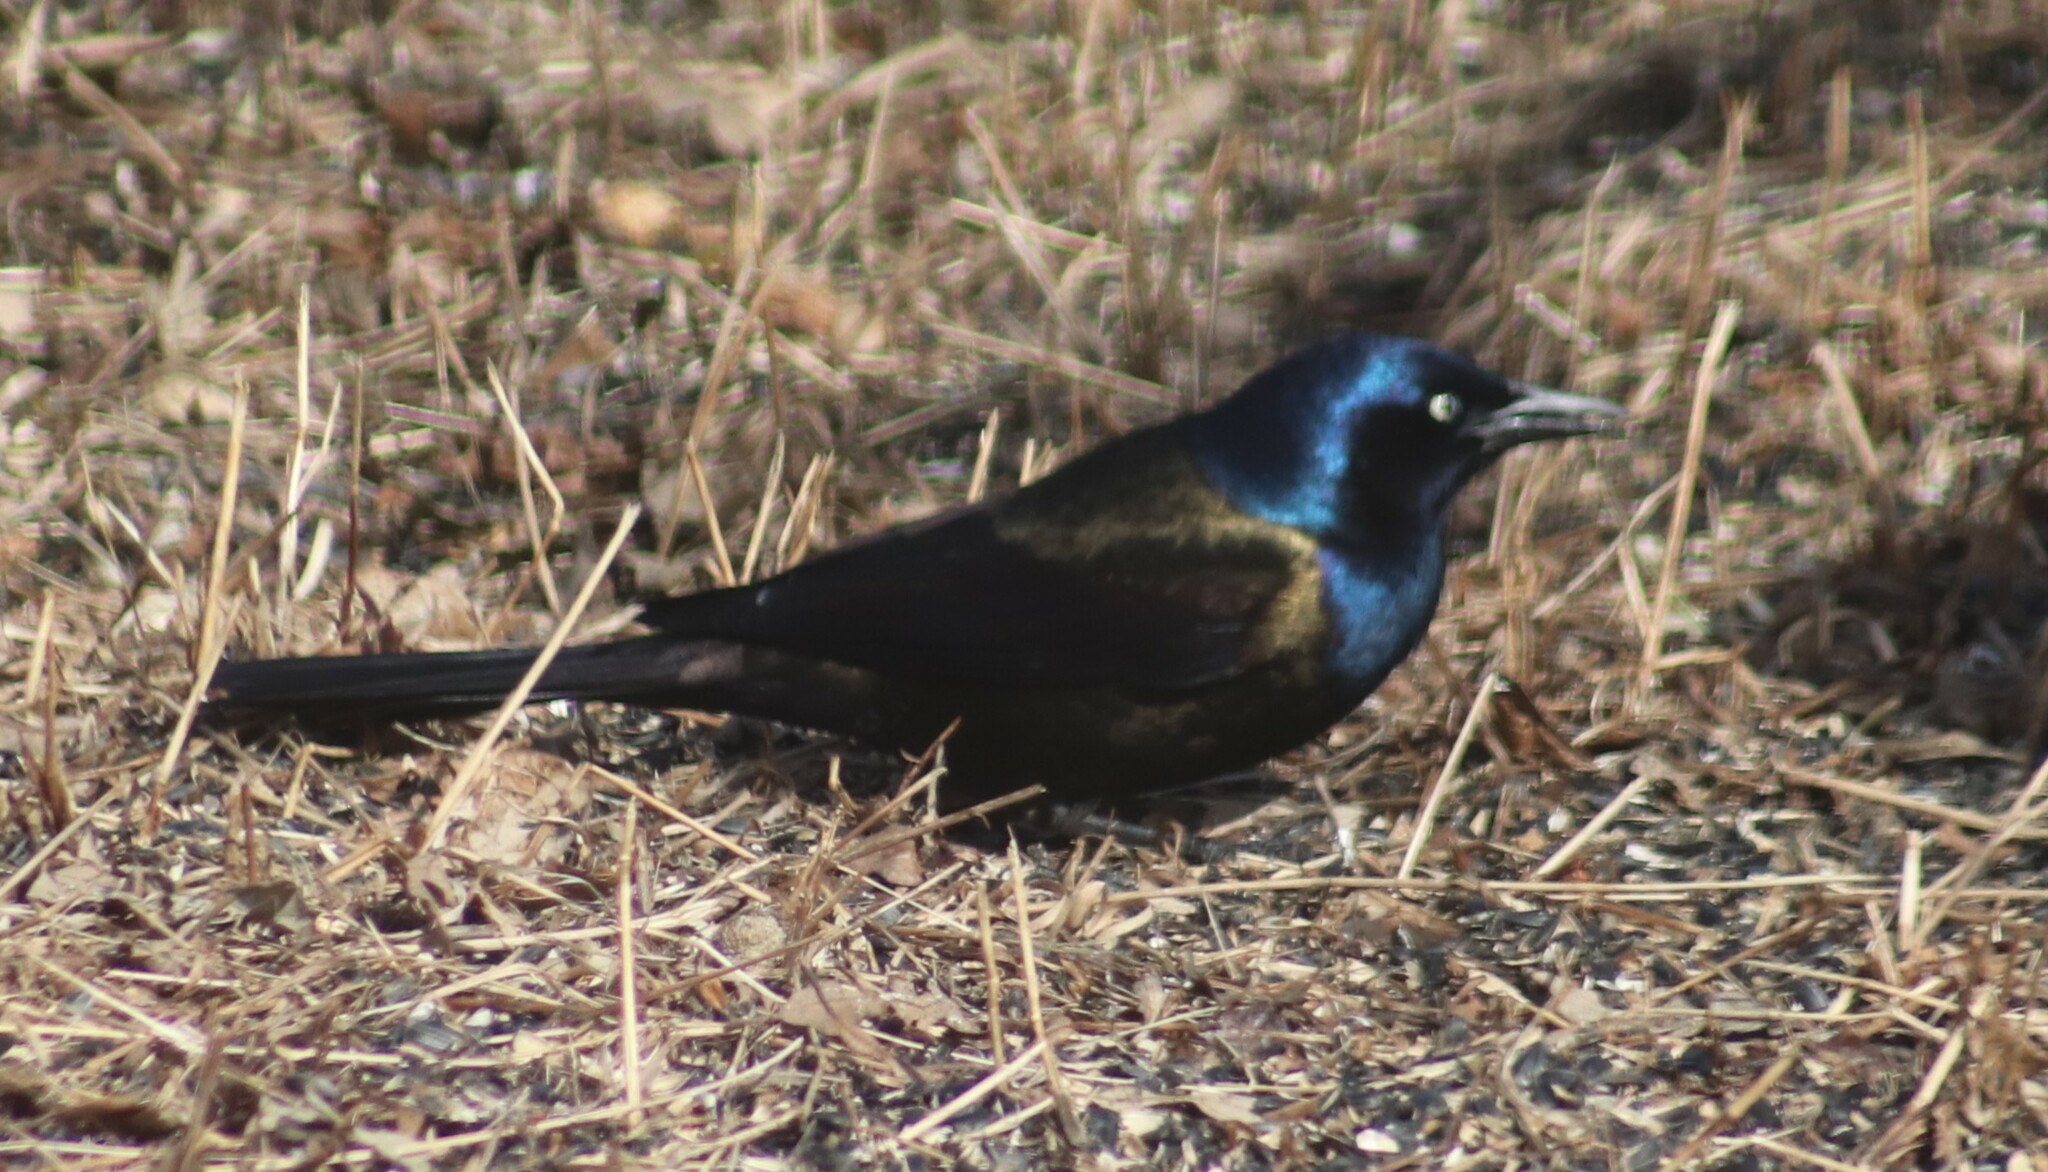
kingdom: Animalia
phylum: Chordata
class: Aves
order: Passeriformes
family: Icteridae
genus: Quiscalus
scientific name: Quiscalus quiscula
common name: Common grackle
